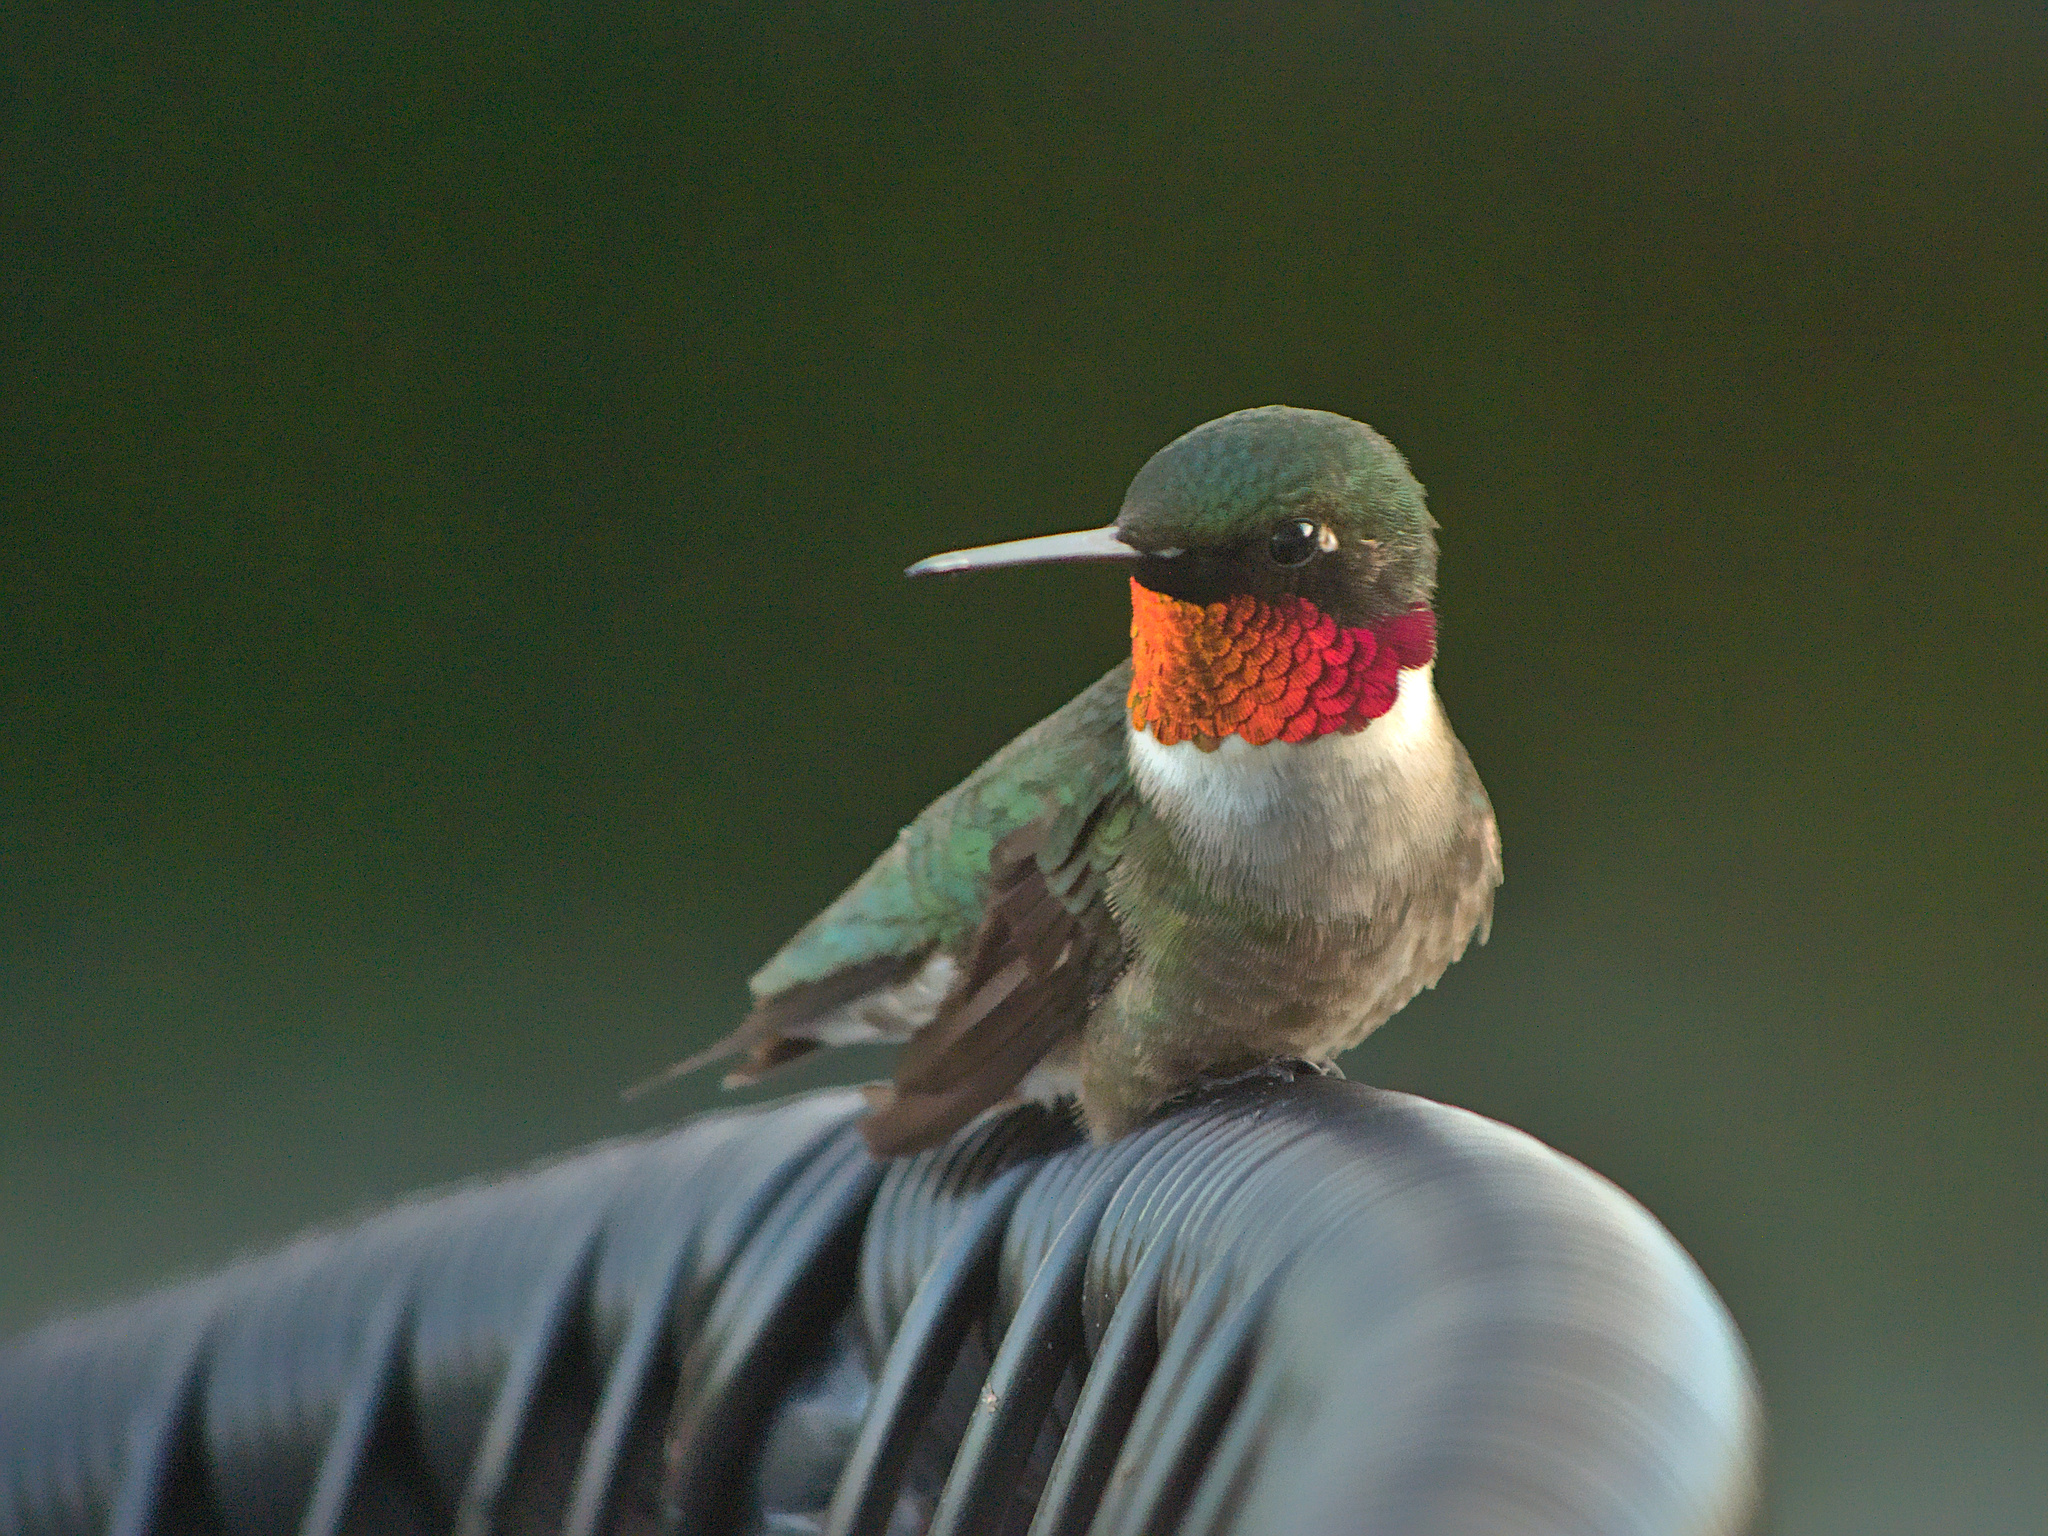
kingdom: Animalia
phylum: Chordata
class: Aves
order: Apodiformes
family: Trochilidae
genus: Archilochus
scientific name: Archilochus colubris
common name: Ruby-throated hummingbird
